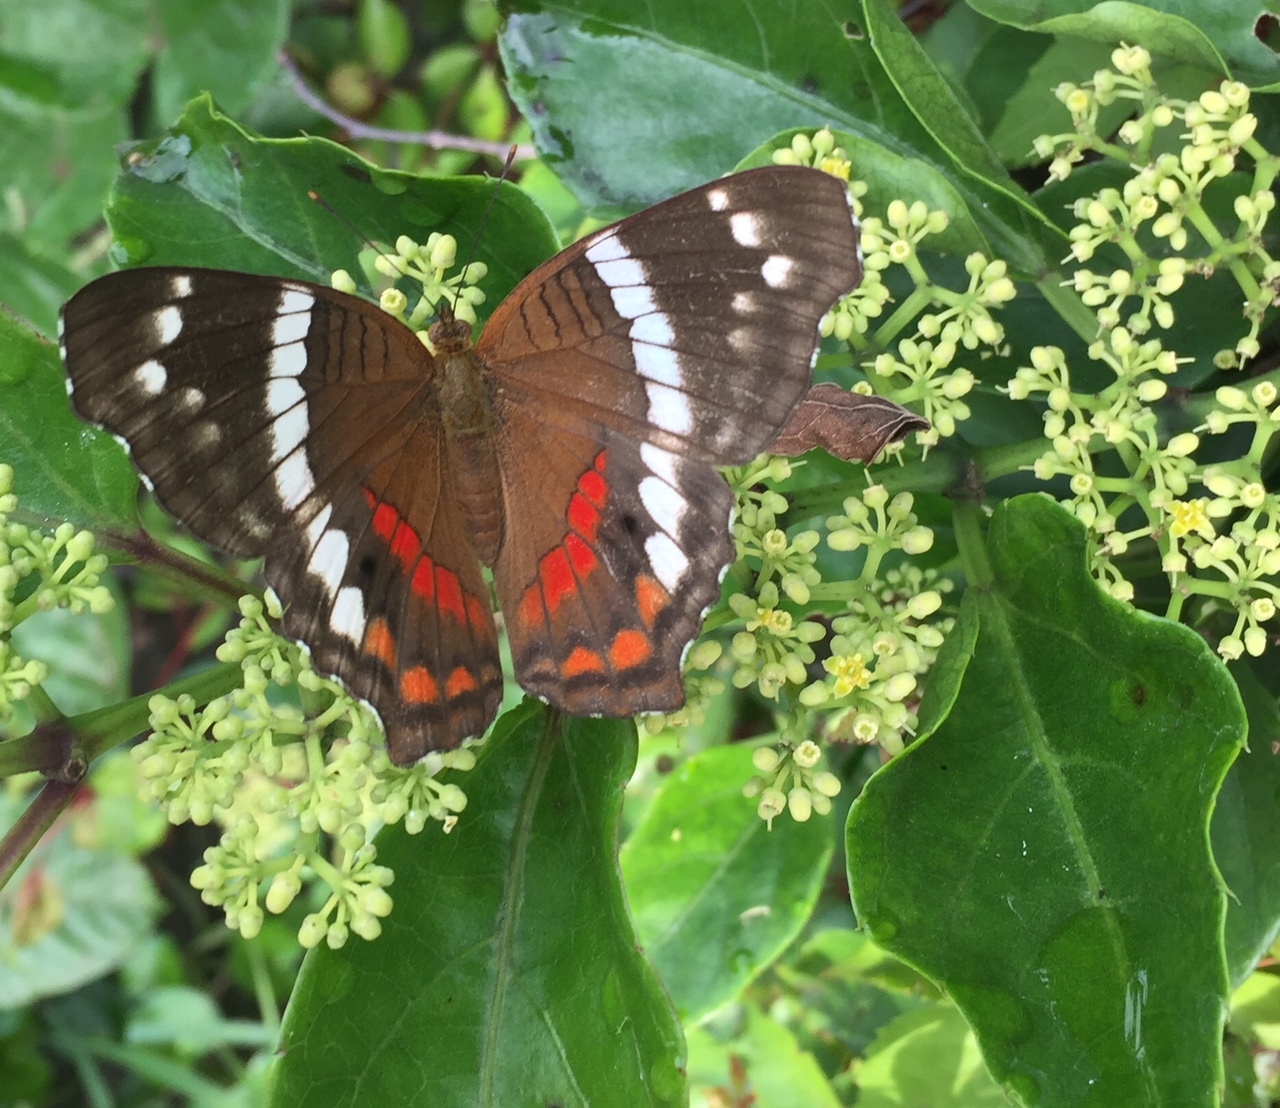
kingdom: Animalia
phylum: Arthropoda
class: Insecta
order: Lepidoptera
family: Nymphalidae
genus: Anartia
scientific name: Anartia fatima
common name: Banded peacock
